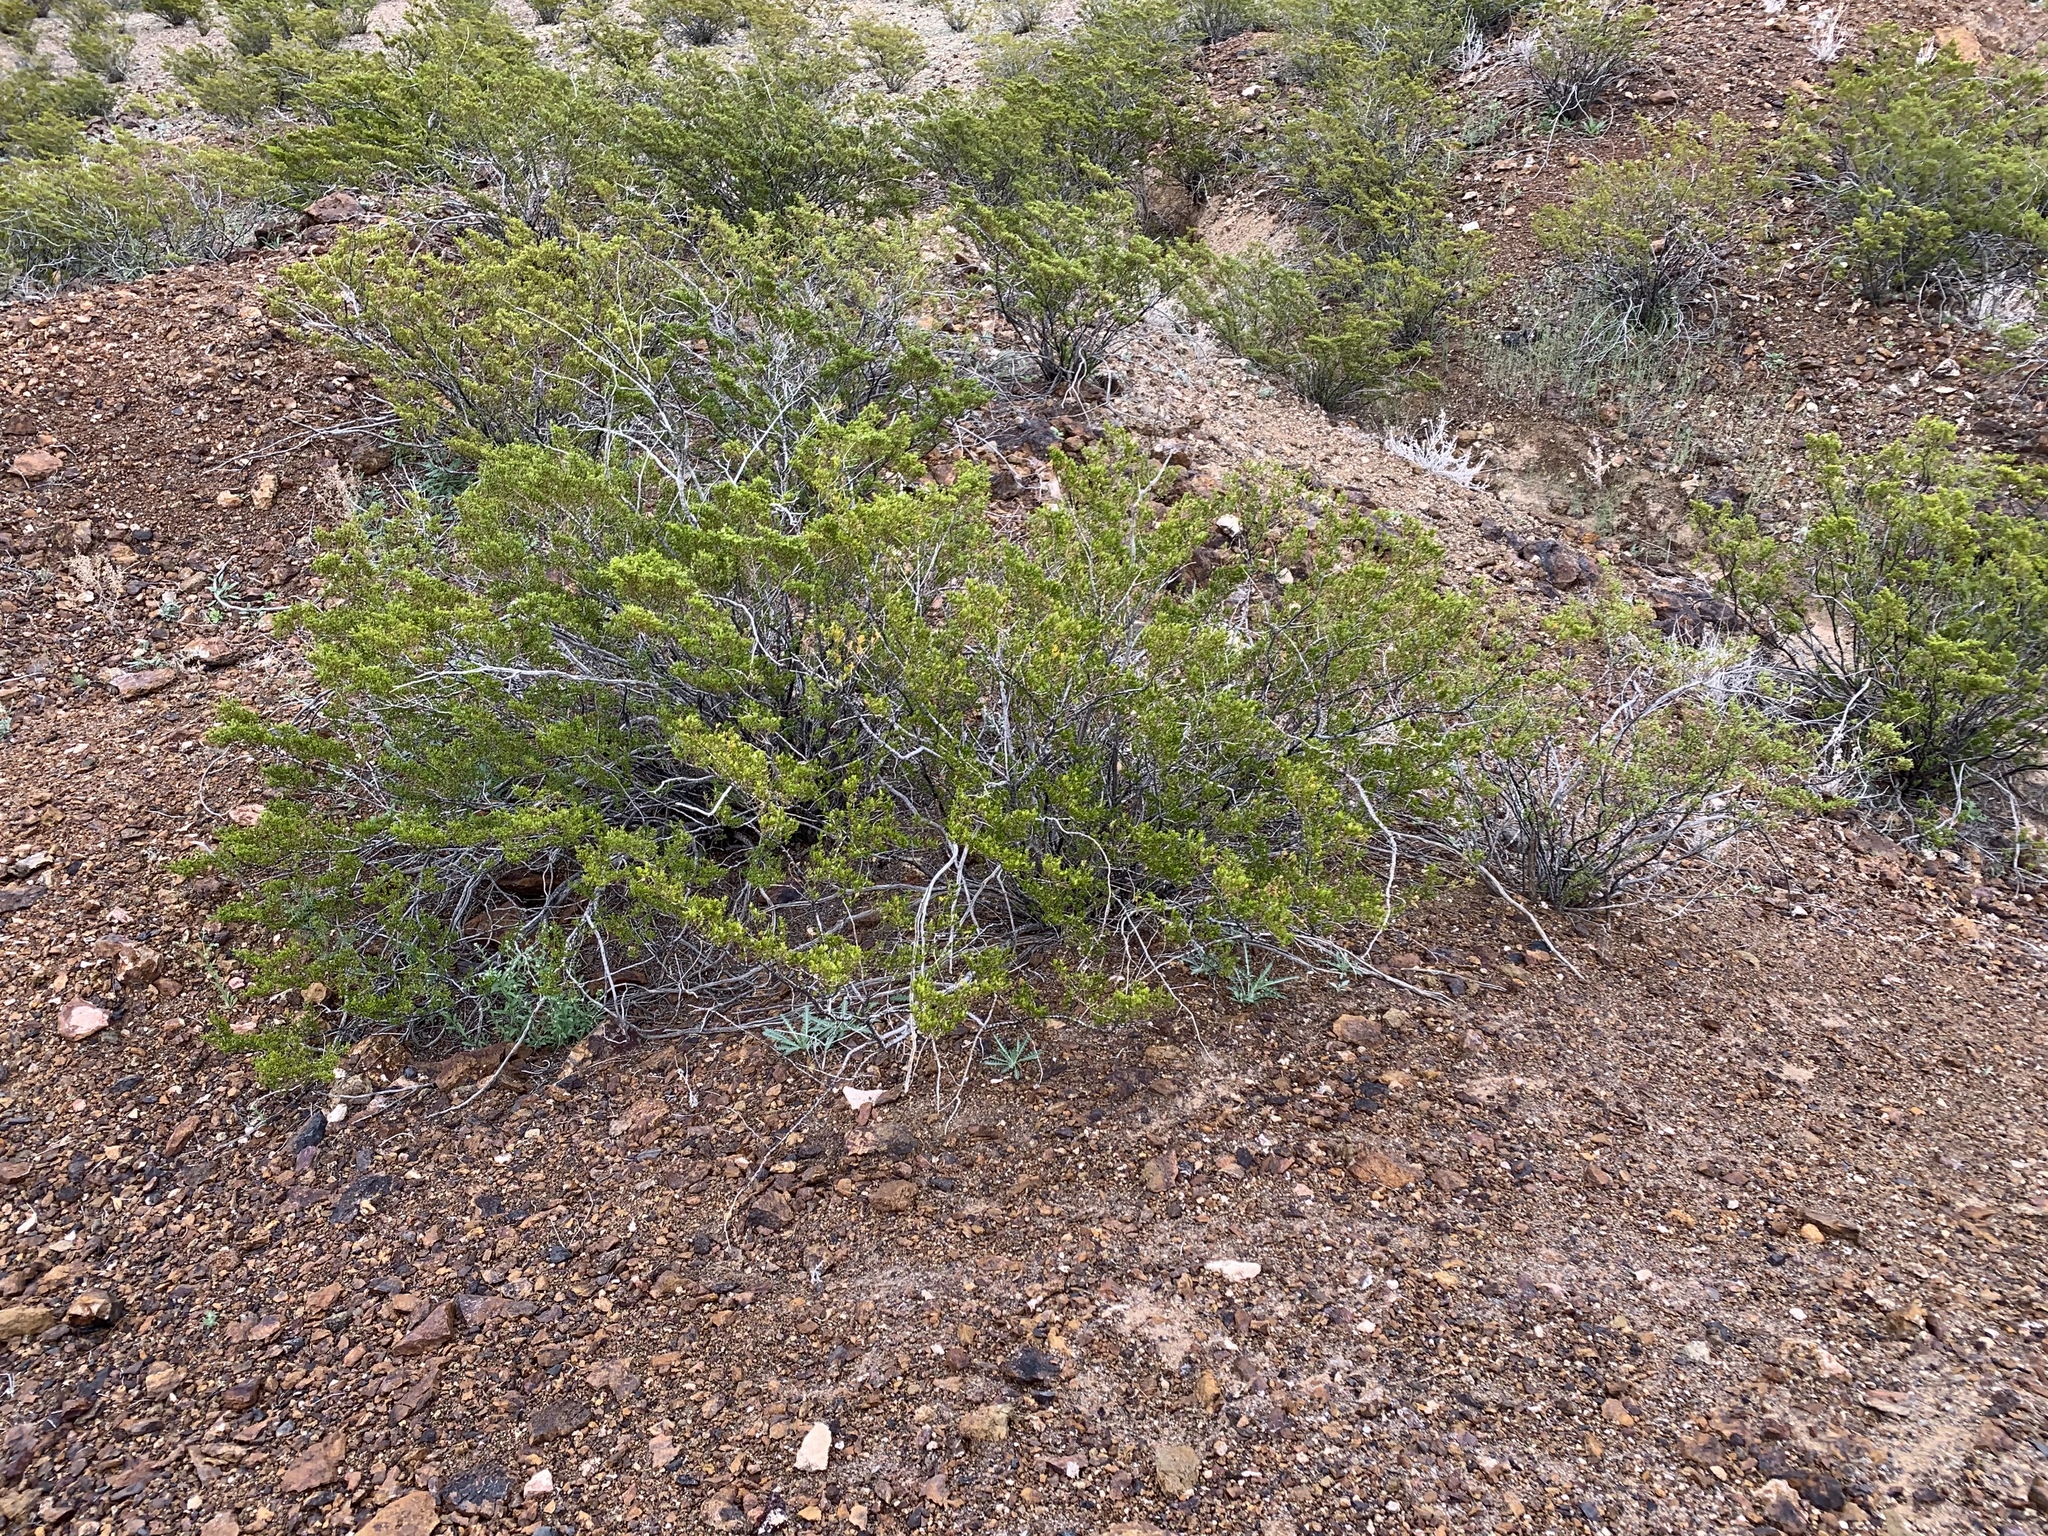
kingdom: Plantae
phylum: Tracheophyta
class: Magnoliopsida
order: Zygophyllales
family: Zygophyllaceae
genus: Larrea
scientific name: Larrea tridentata
